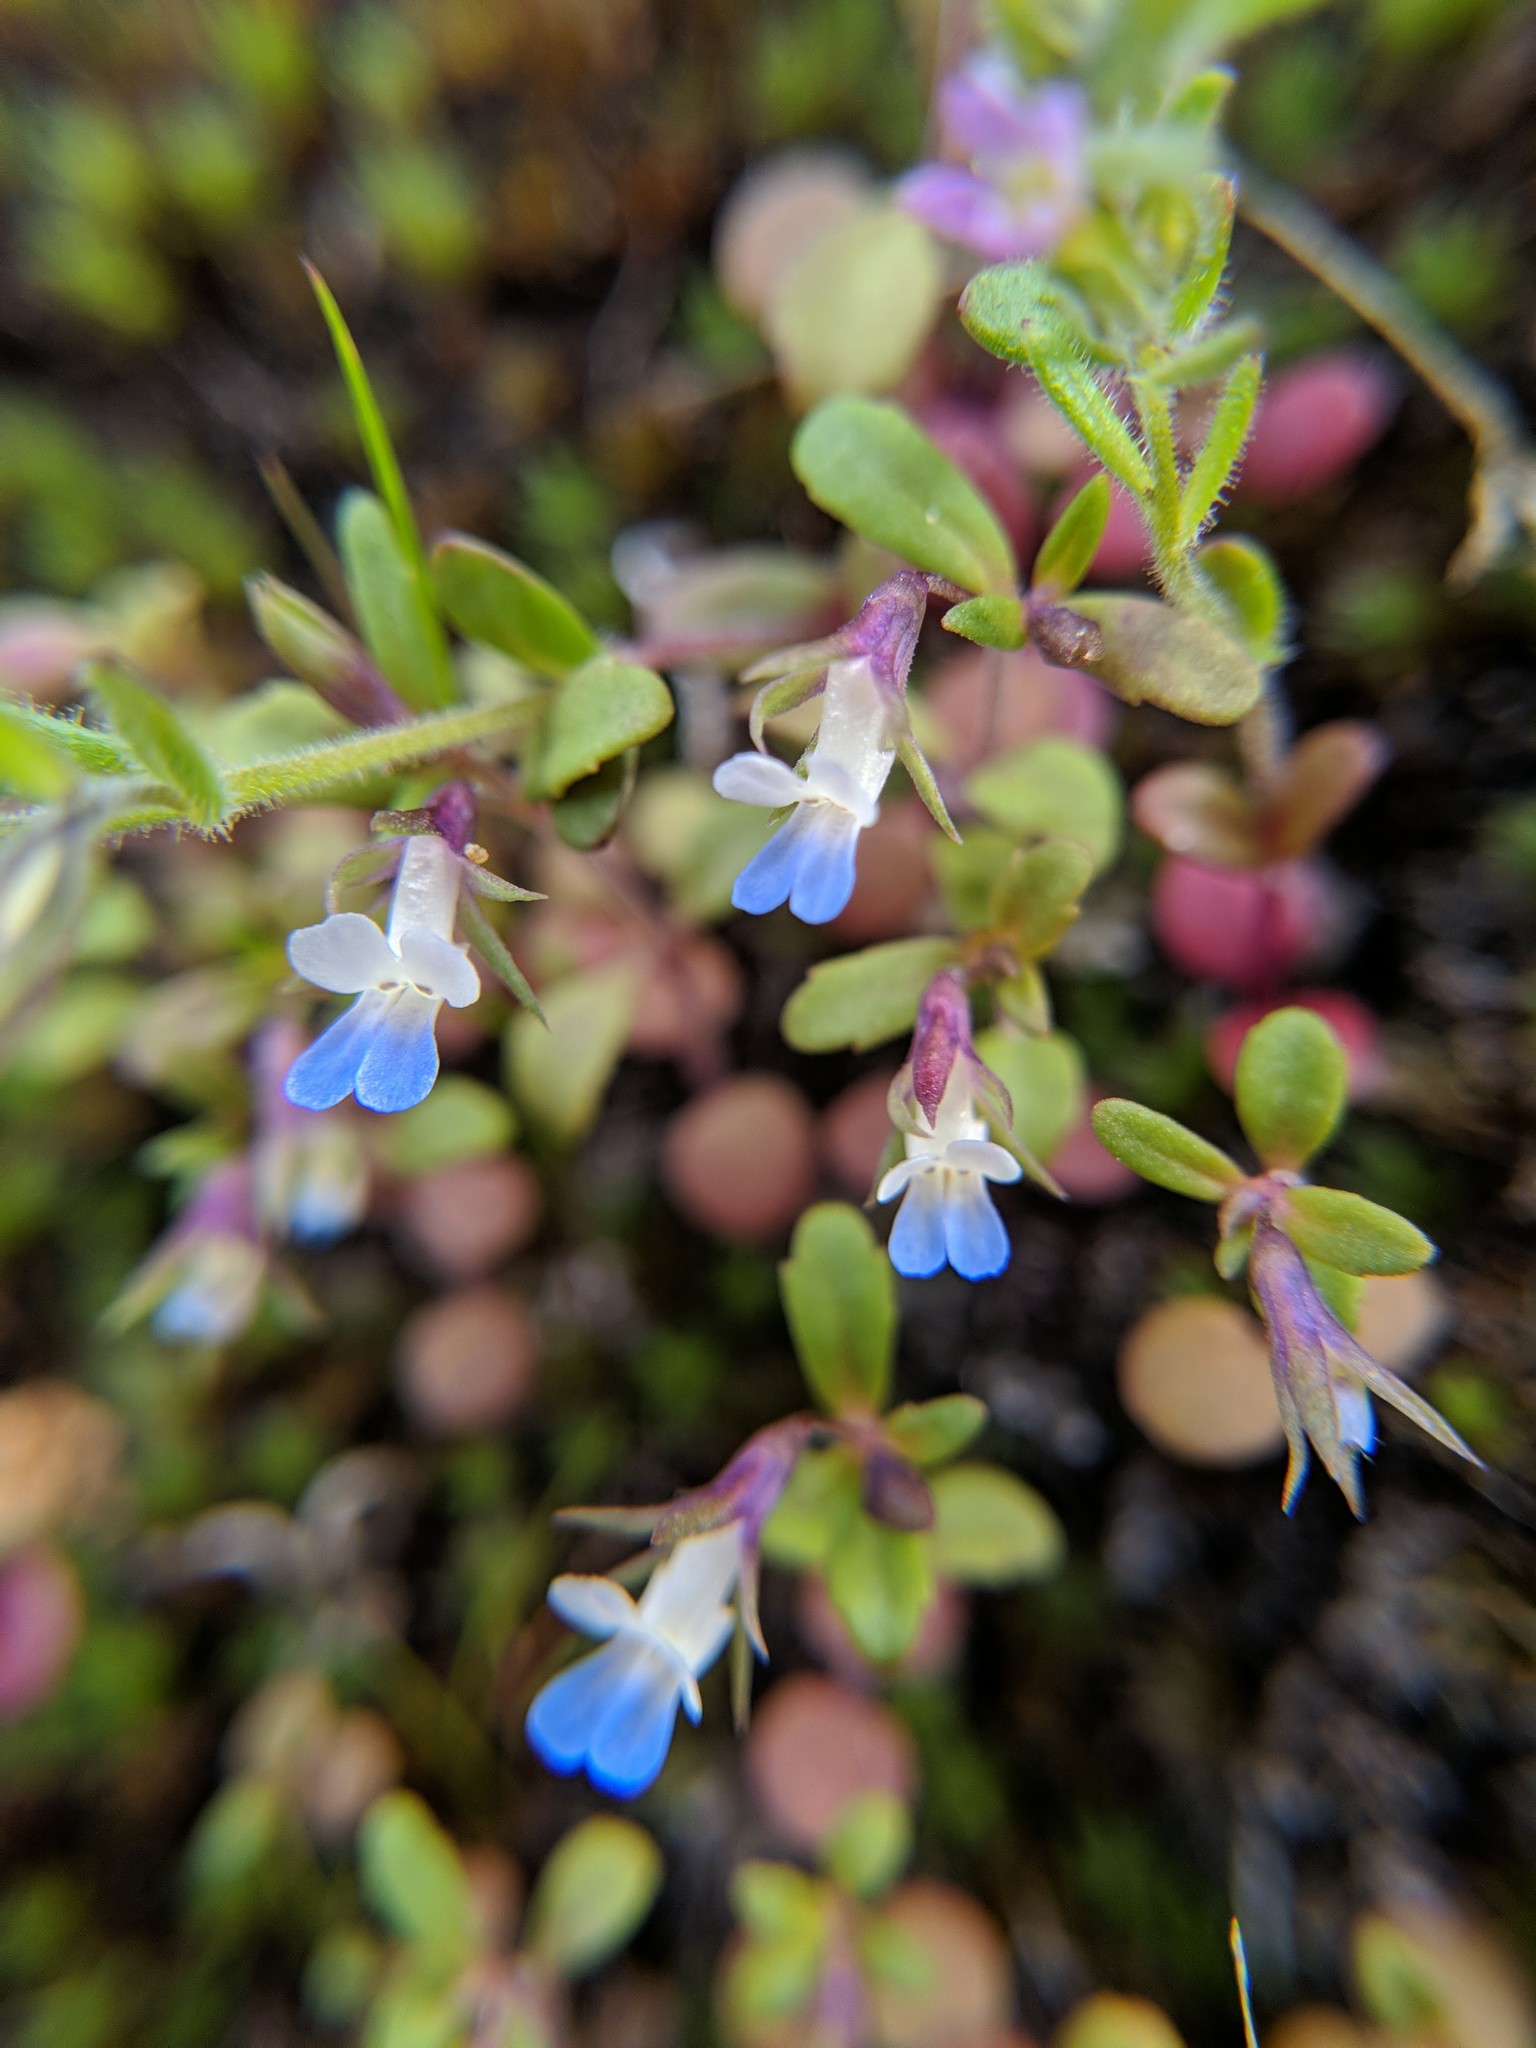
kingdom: Plantae
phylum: Tracheophyta
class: Magnoliopsida
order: Lamiales
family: Plantaginaceae
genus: Collinsia
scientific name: Collinsia parviflora
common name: Blue-lips
